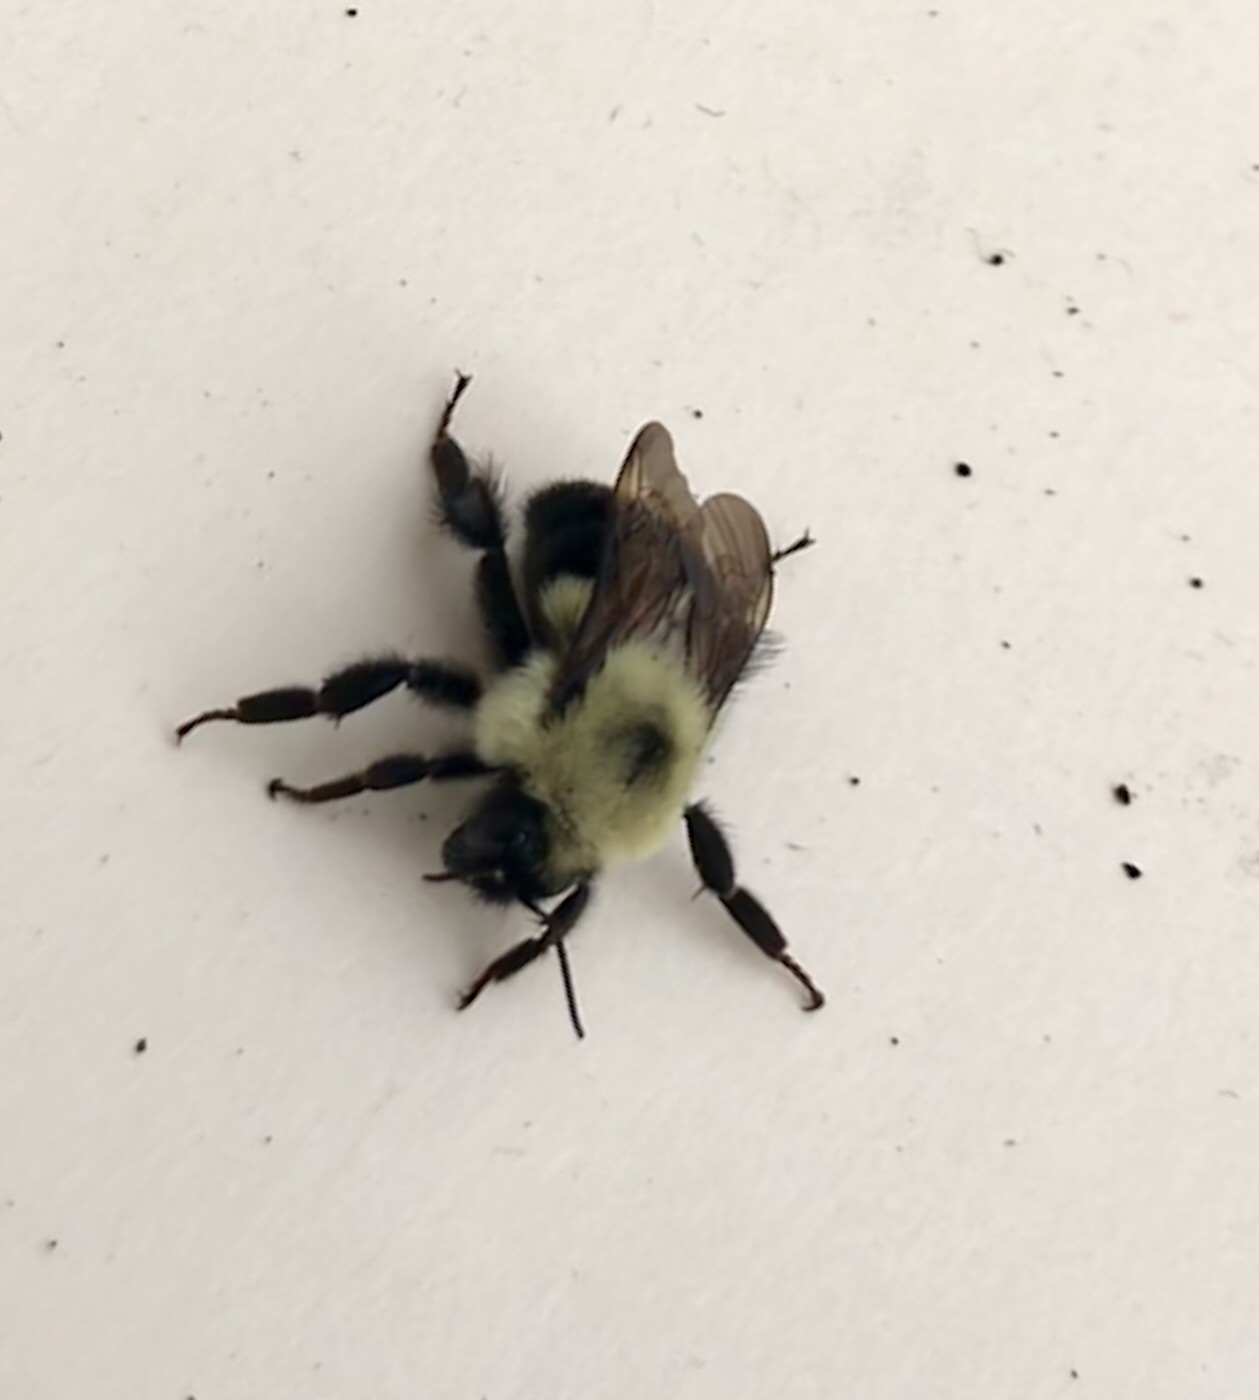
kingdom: Animalia
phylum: Arthropoda
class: Insecta
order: Hymenoptera
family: Apidae
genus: Bombus
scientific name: Bombus bimaculatus
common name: Two-spotted bumble bee
